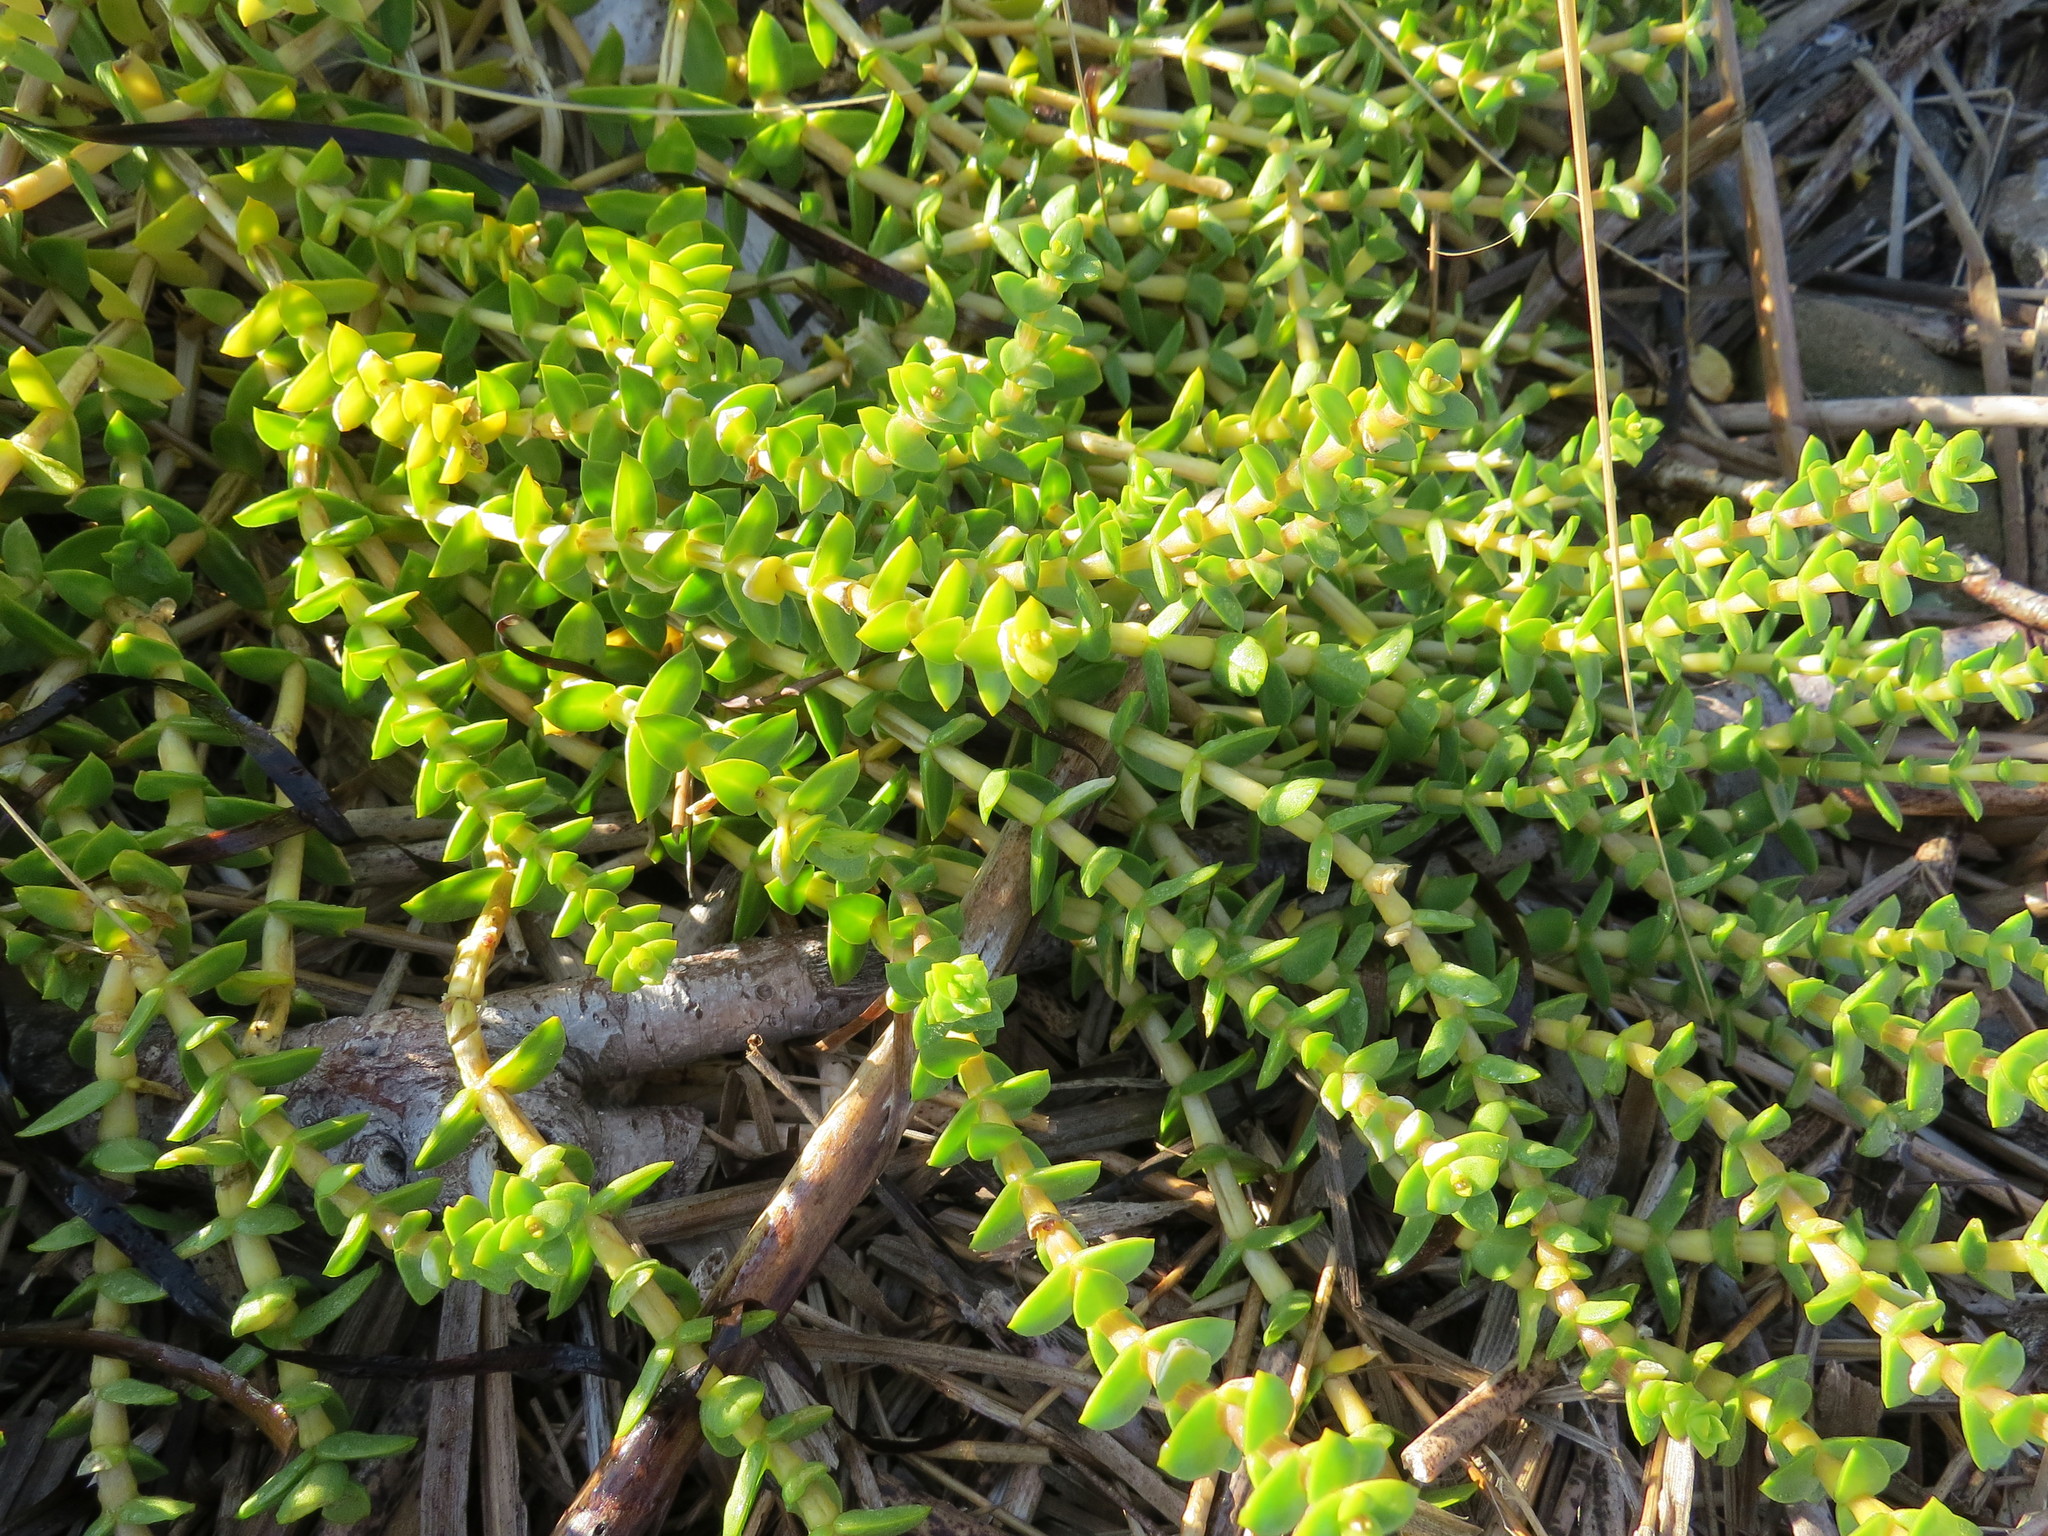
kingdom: Plantae
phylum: Tracheophyta
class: Magnoliopsida
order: Caryophyllales
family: Caryophyllaceae
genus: Honckenya
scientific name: Honckenya peploides
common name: Sea sandwort
